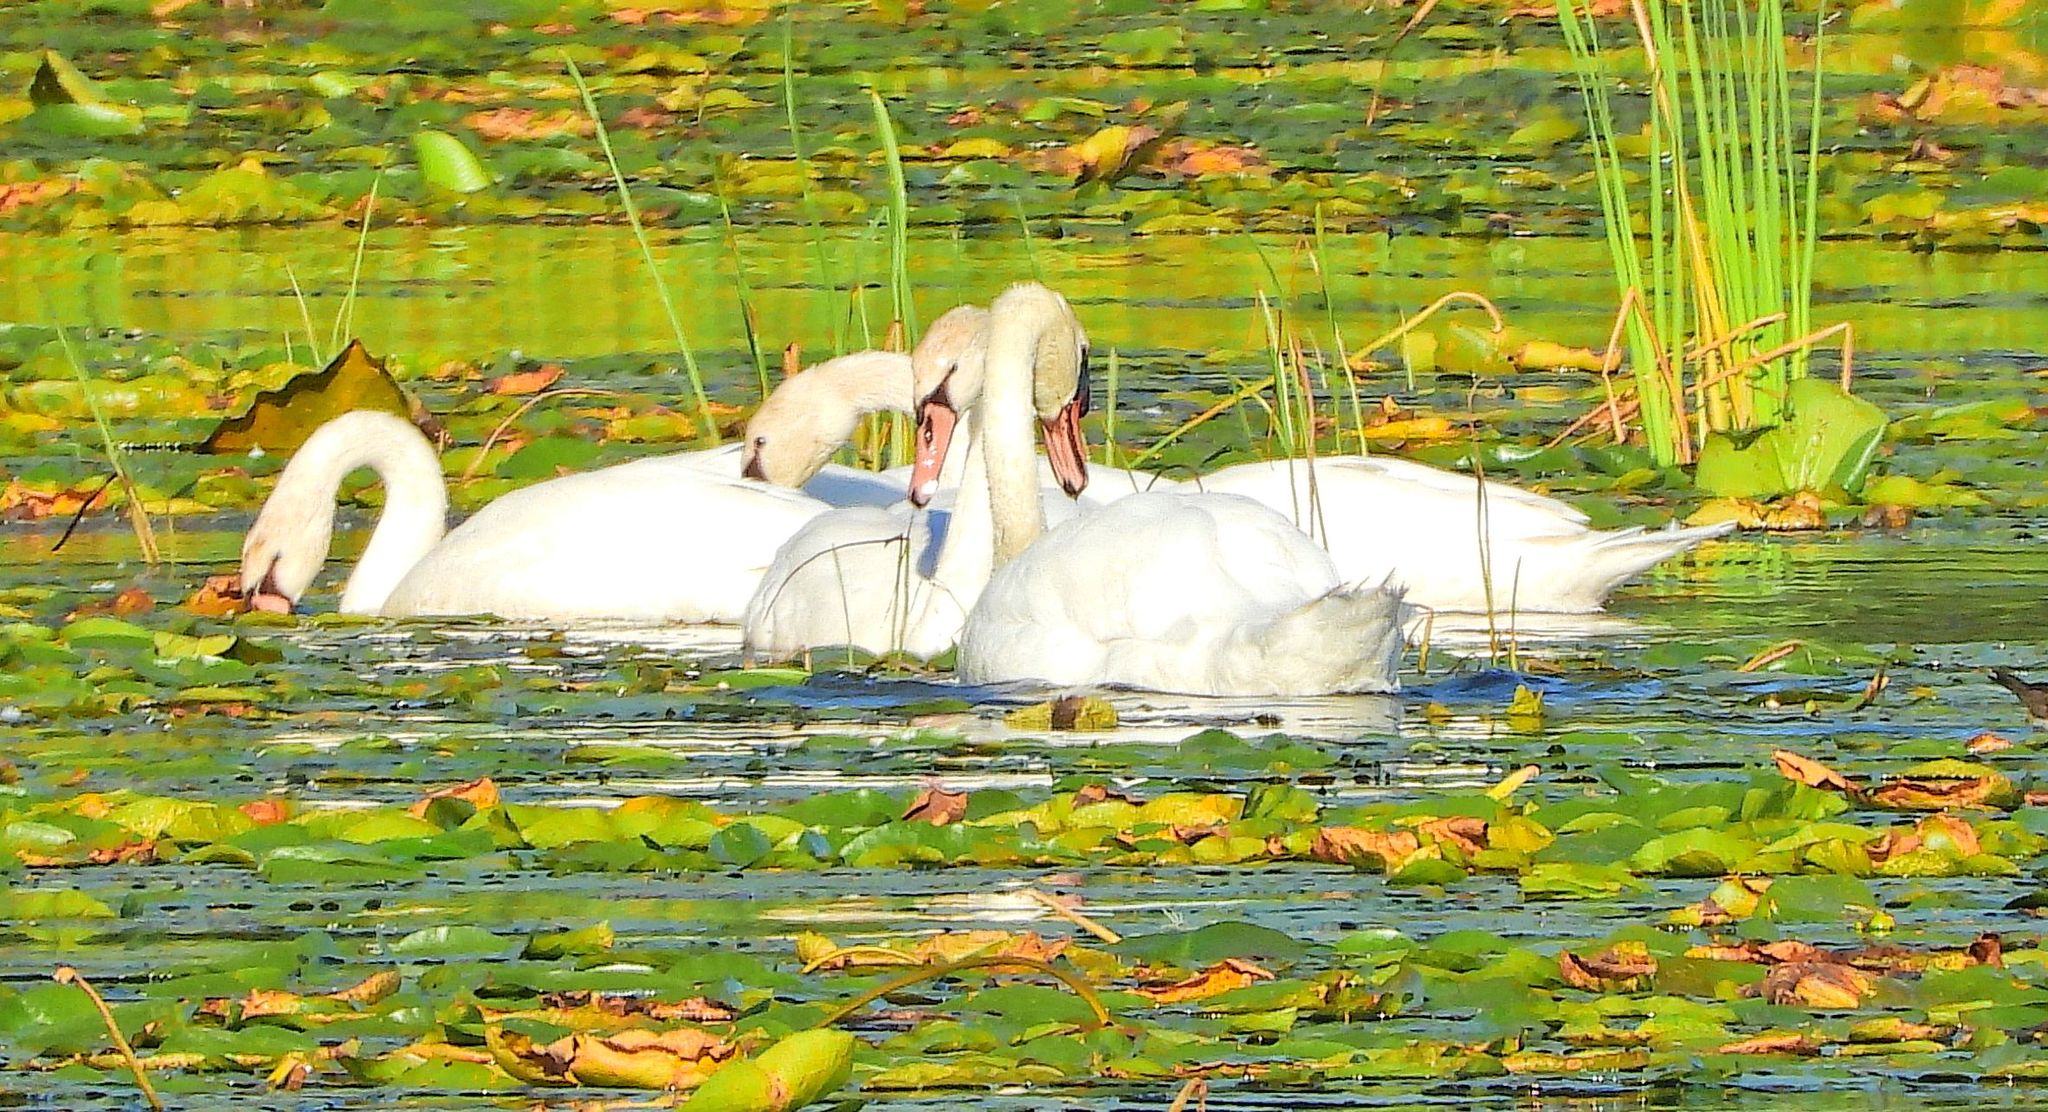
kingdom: Animalia
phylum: Chordata
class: Aves
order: Anseriformes
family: Anatidae
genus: Cygnus
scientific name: Cygnus olor
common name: Mute swan
